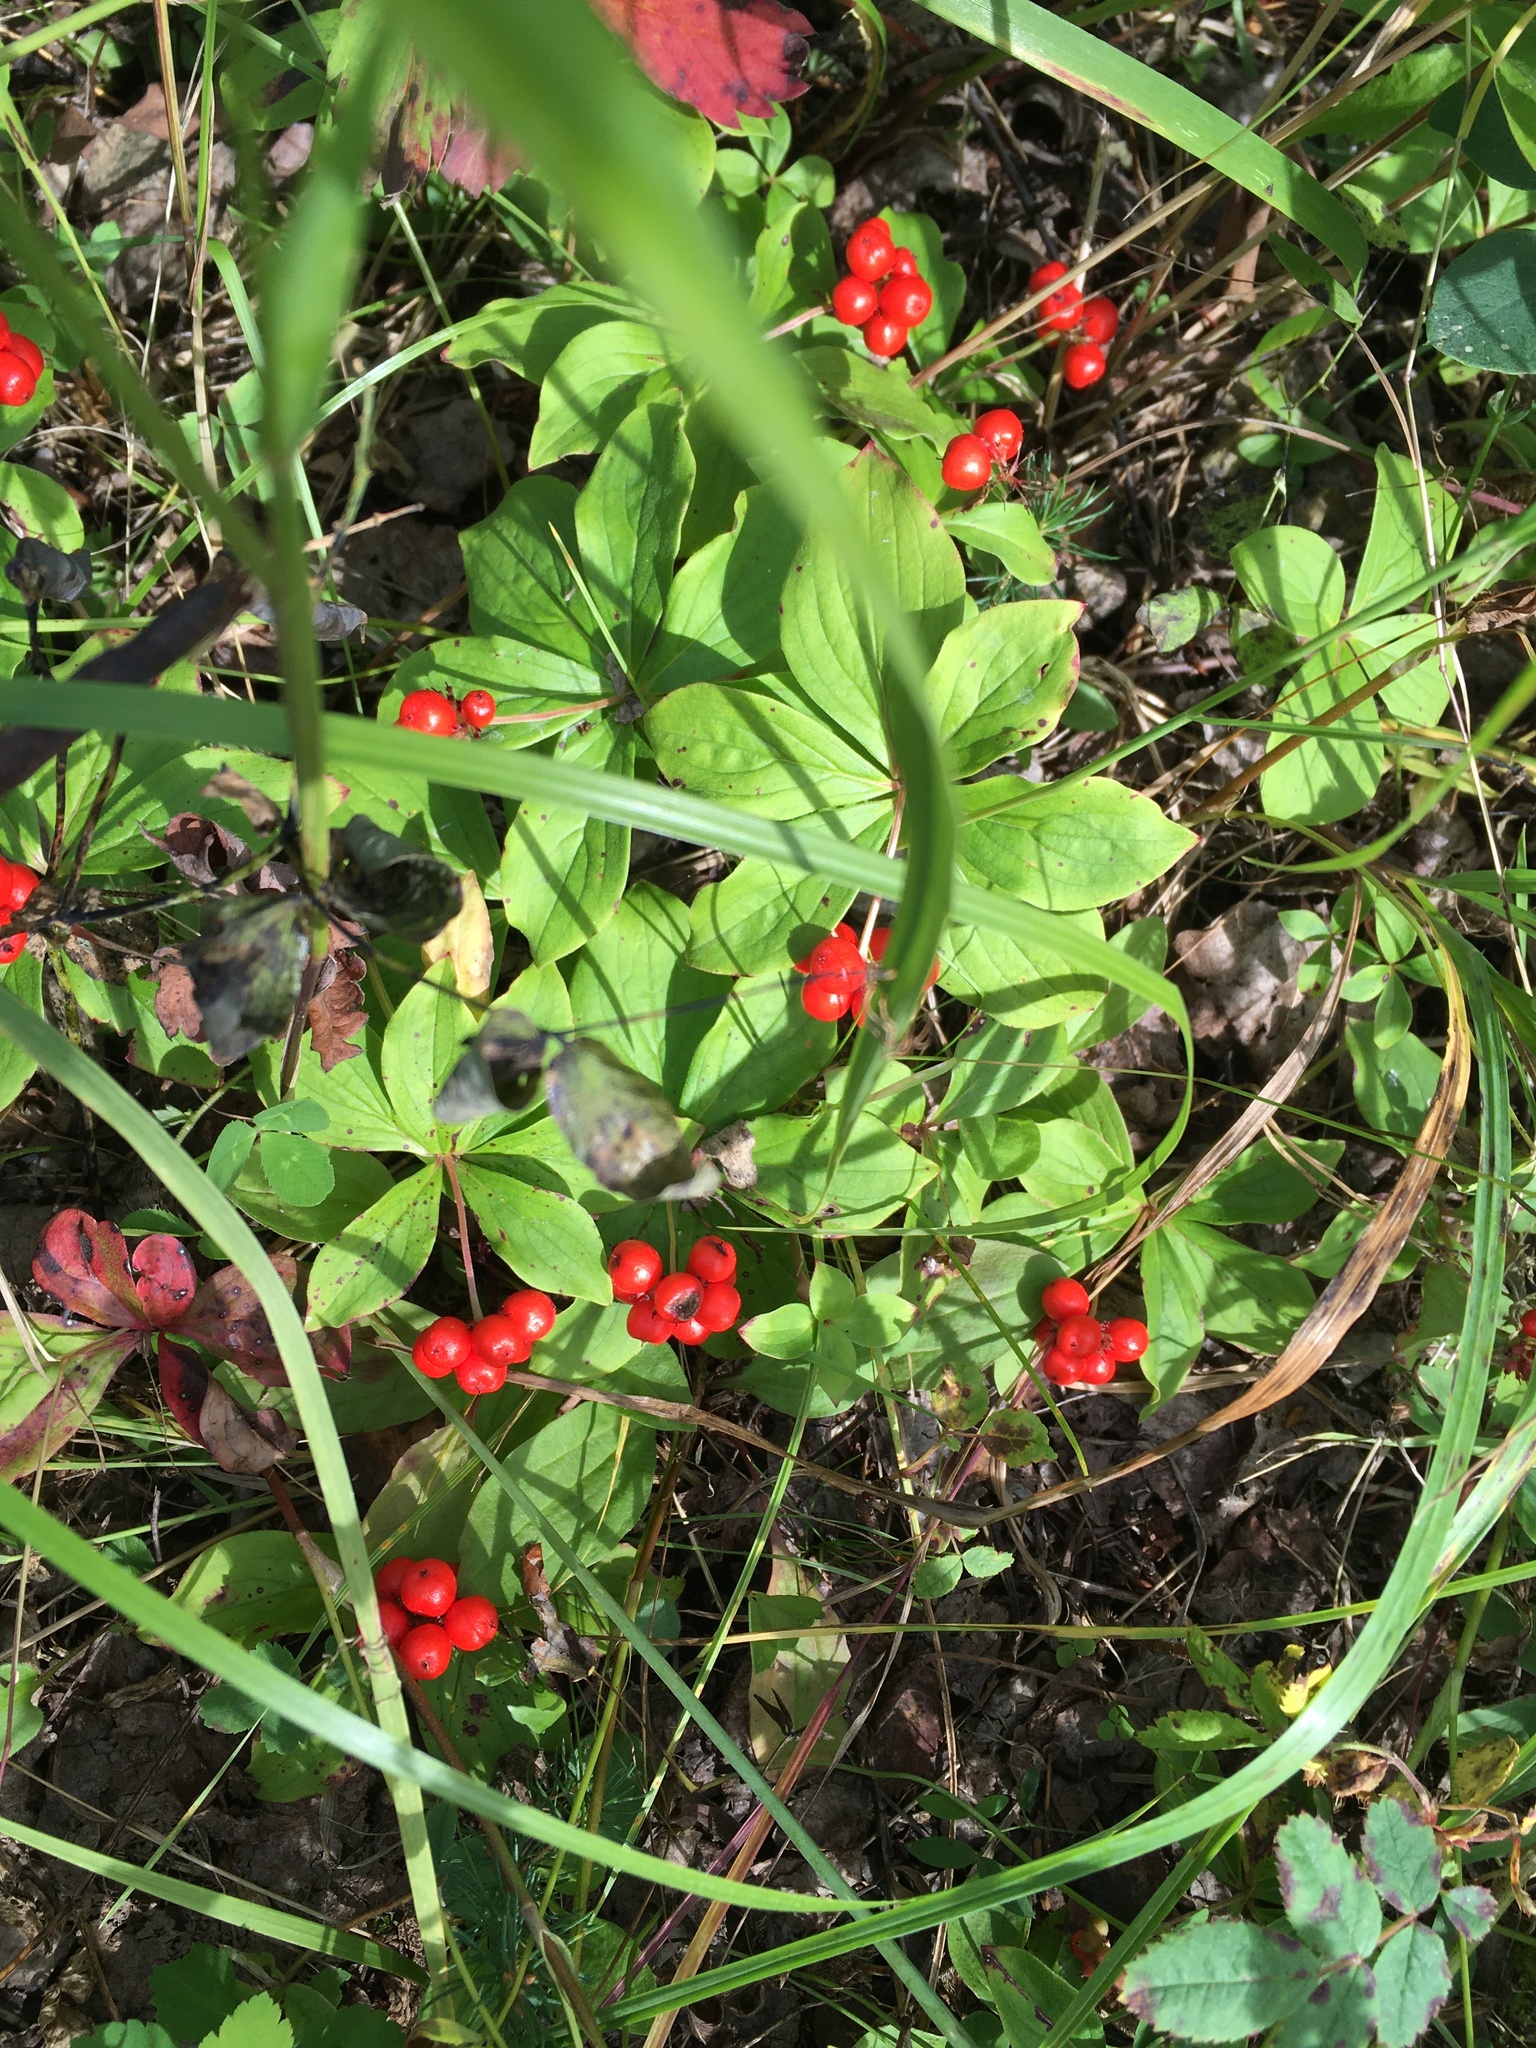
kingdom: Plantae
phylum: Tracheophyta
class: Magnoliopsida
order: Cornales
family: Cornaceae
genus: Cornus
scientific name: Cornus canadensis
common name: Creeping dogwood
